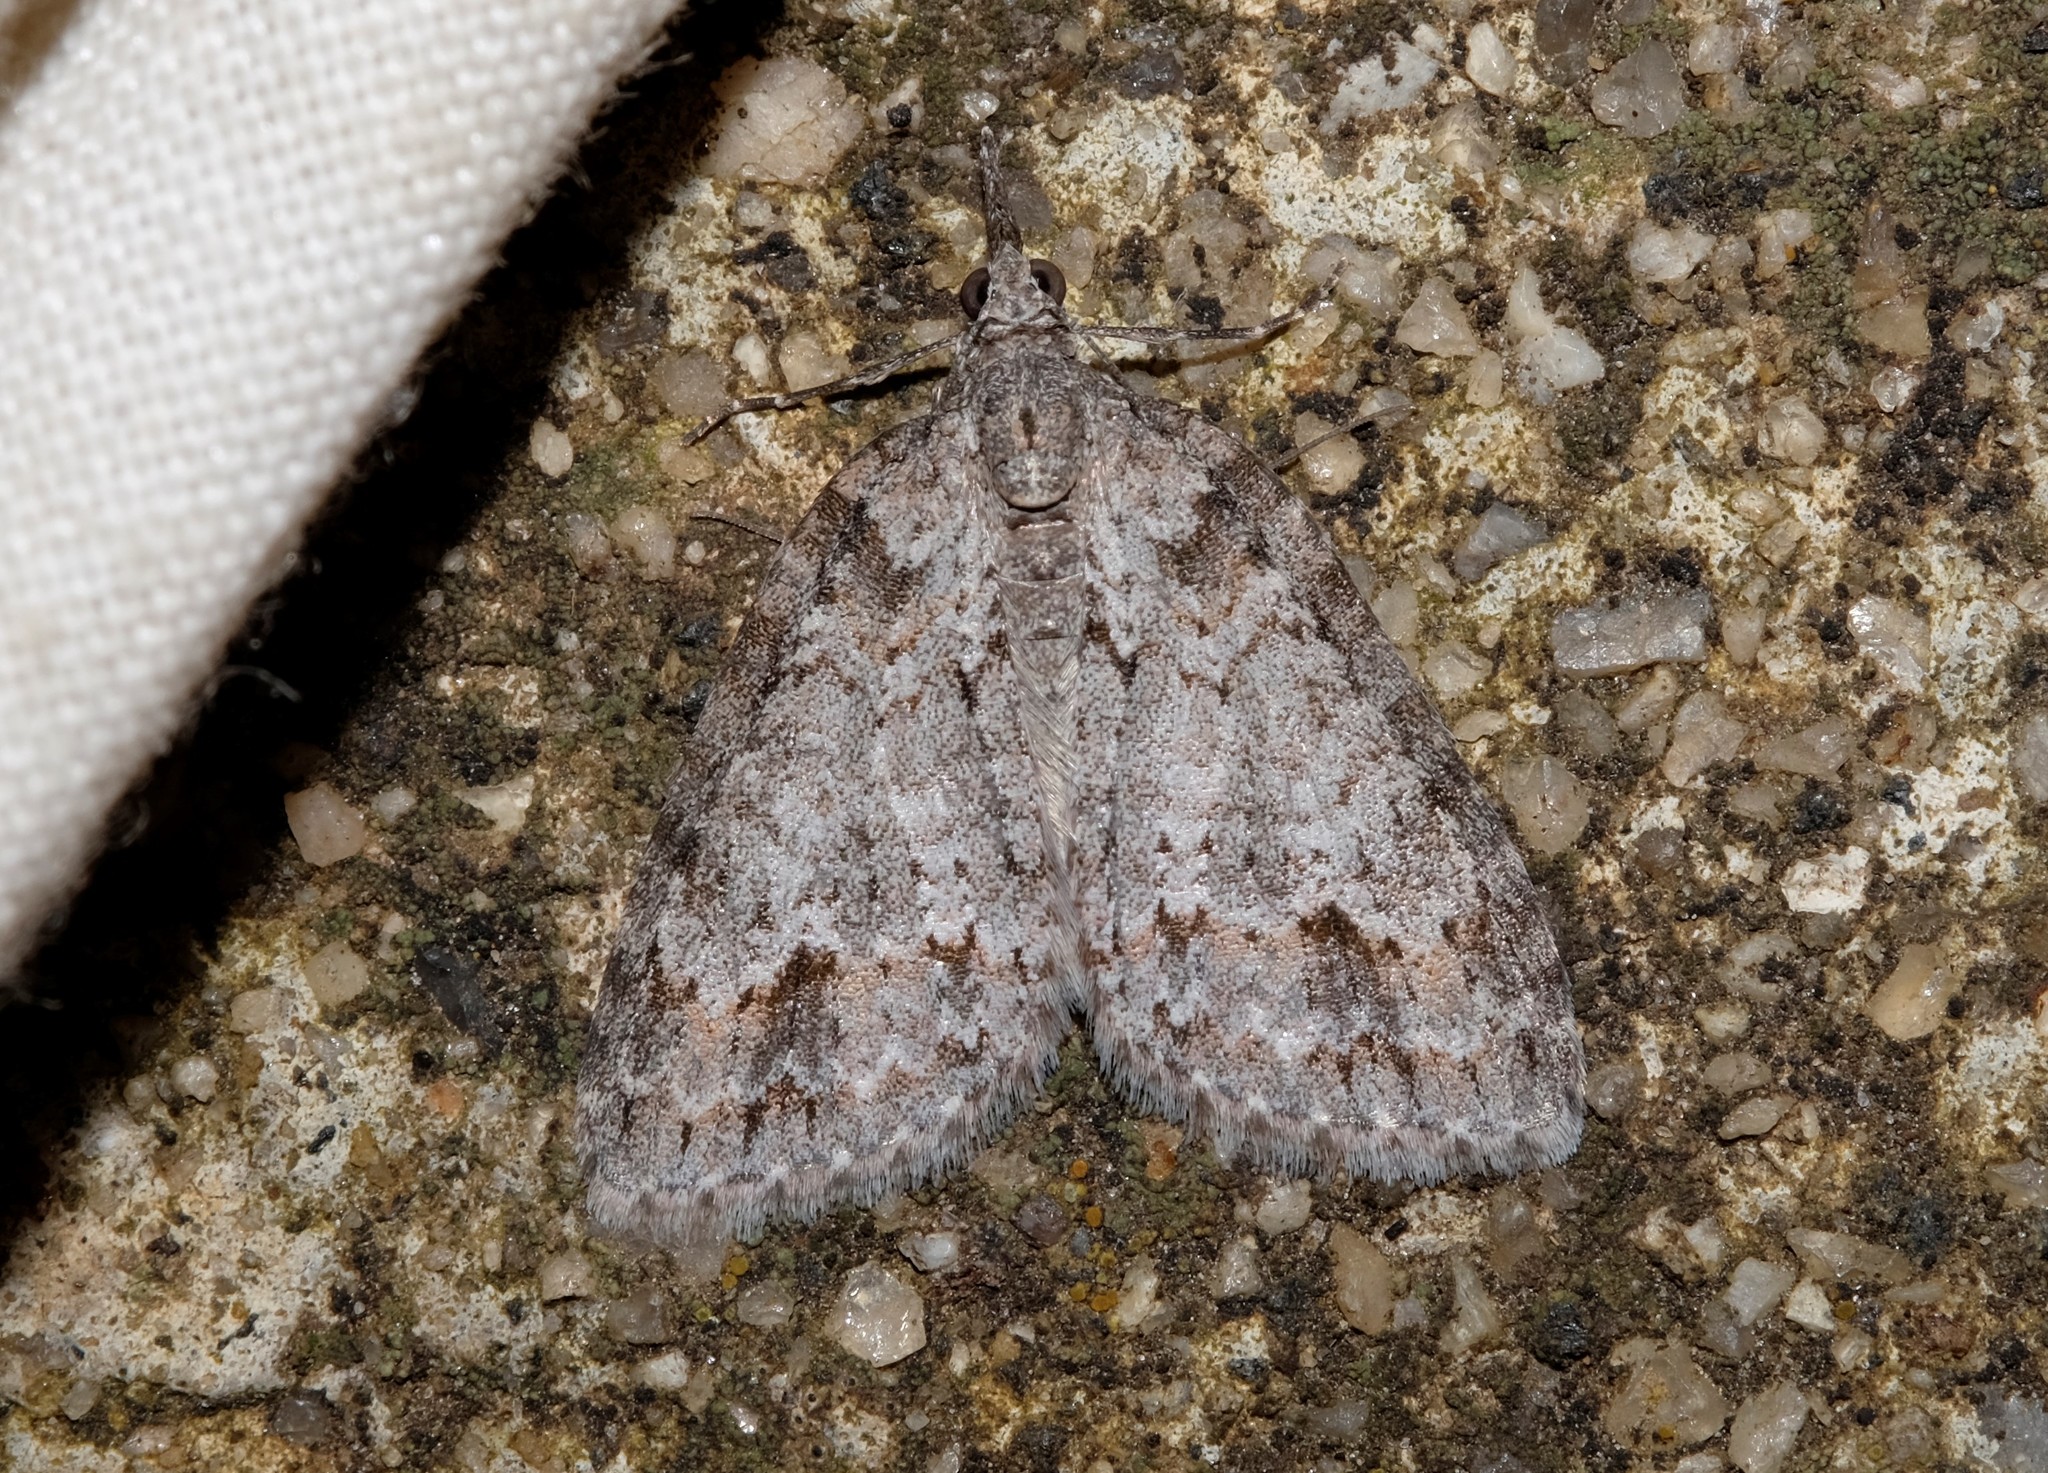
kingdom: Animalia
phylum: Arthropoda
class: Insecta
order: Lepidoptera
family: Geometridae
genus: Microdes
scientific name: Microdes villosata
